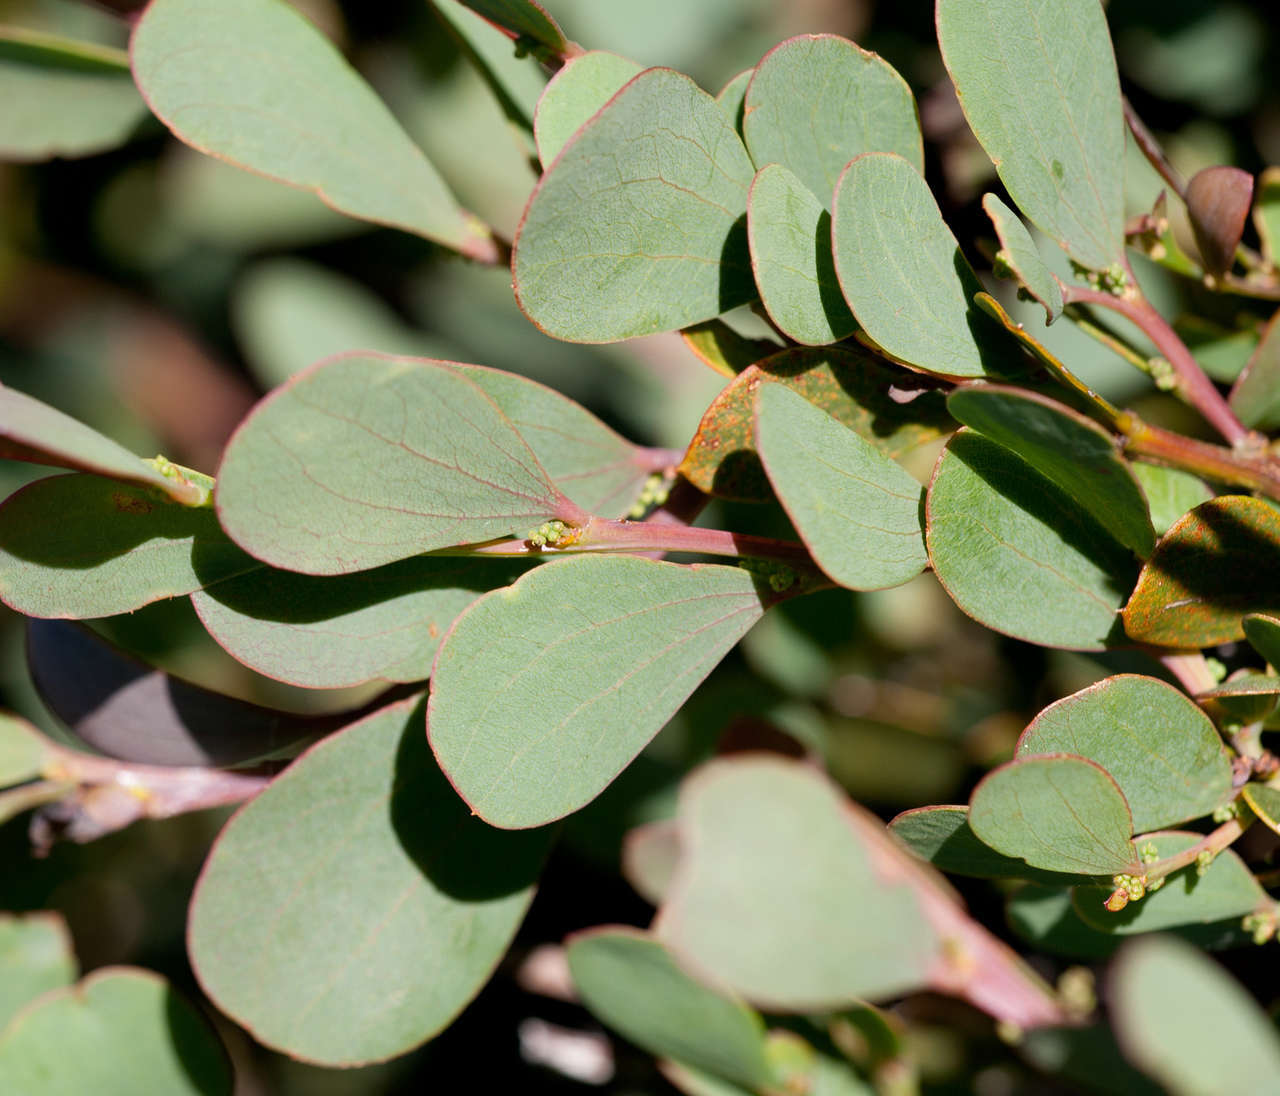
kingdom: Plantae
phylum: Tracheophyta
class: Magnoliopsida
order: Fabales
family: Fabaceae
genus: Acacia
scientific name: Acacia alpina
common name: Alpine wattle
